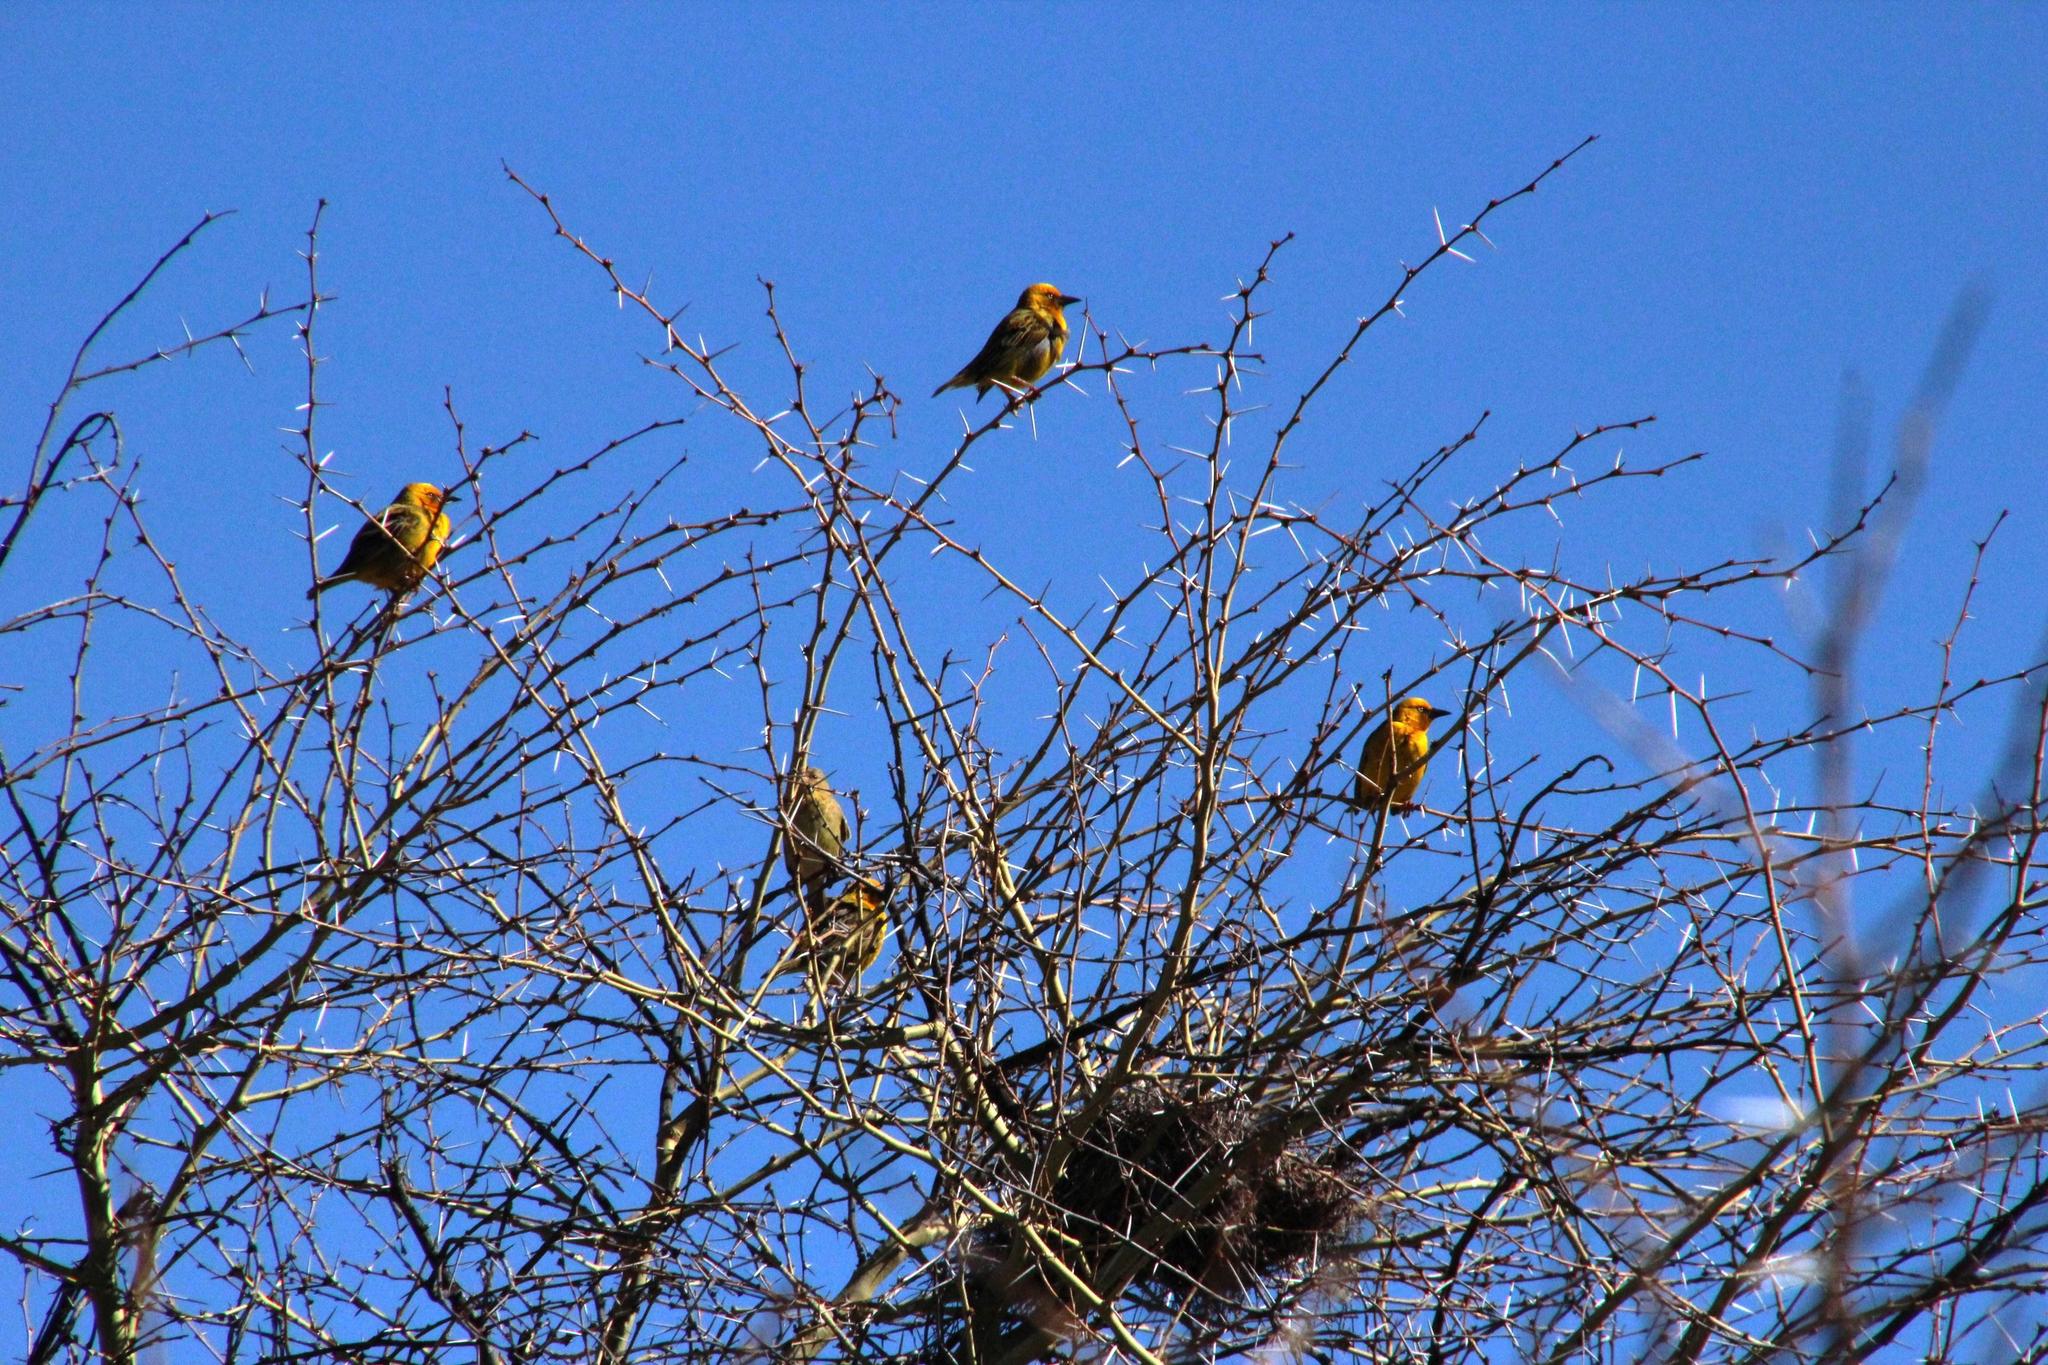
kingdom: Animalia
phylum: Chordata
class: Aves
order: Passeriformes
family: Ploceidae
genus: Ploceus
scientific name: Ploceus capensis
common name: Cape weaver
